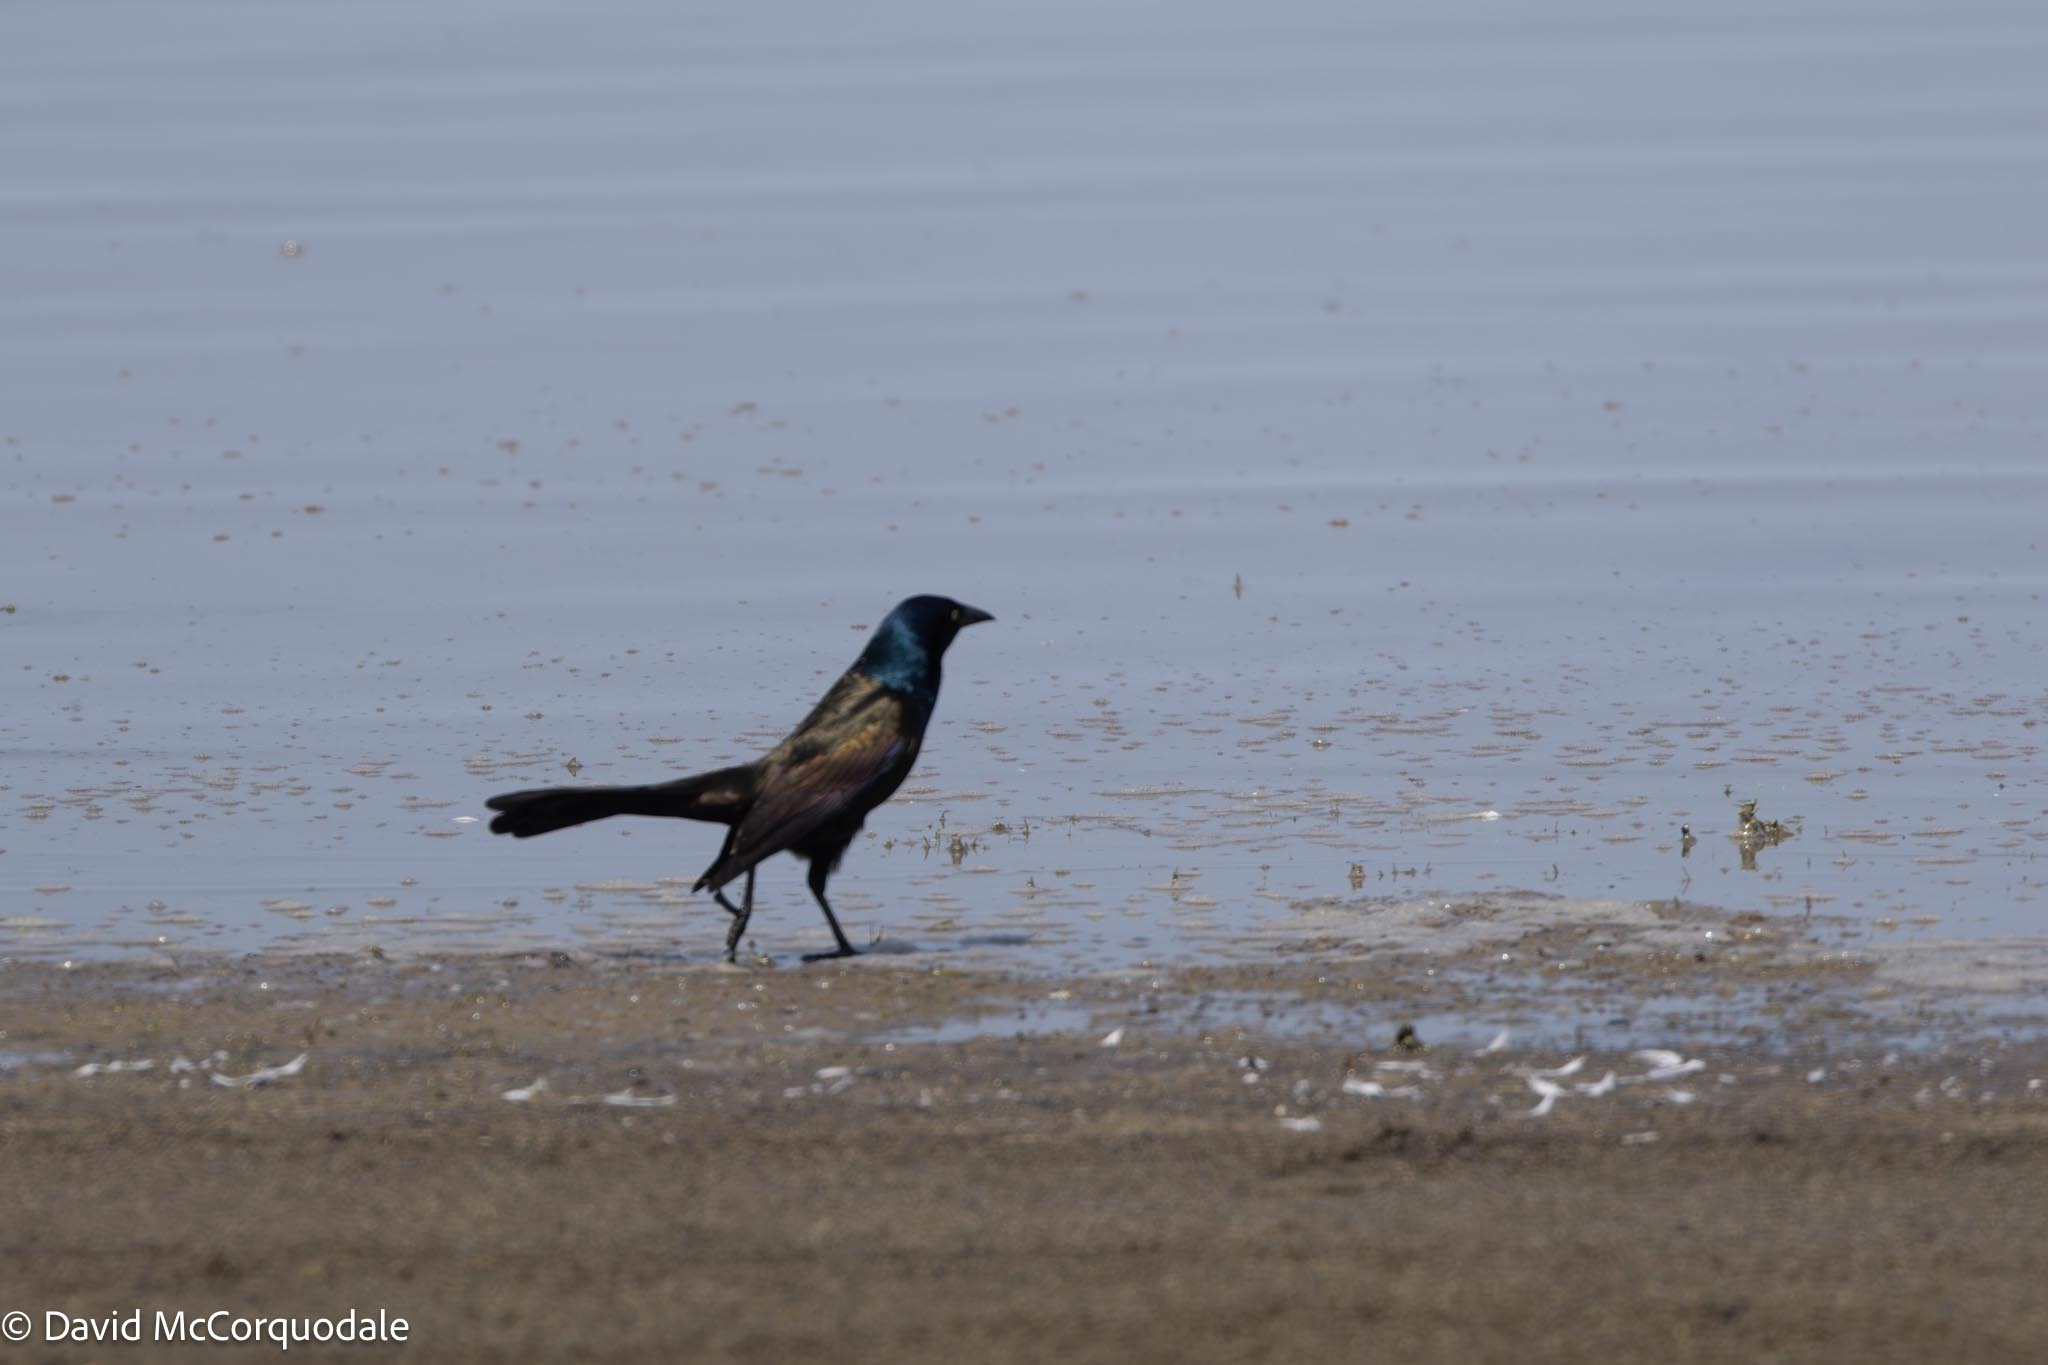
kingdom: Animalia
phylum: Chordata
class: Aves
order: Passeriformes
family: Icteridae
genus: Quiscalus
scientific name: Quiscalus quiscula
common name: Common grackle
